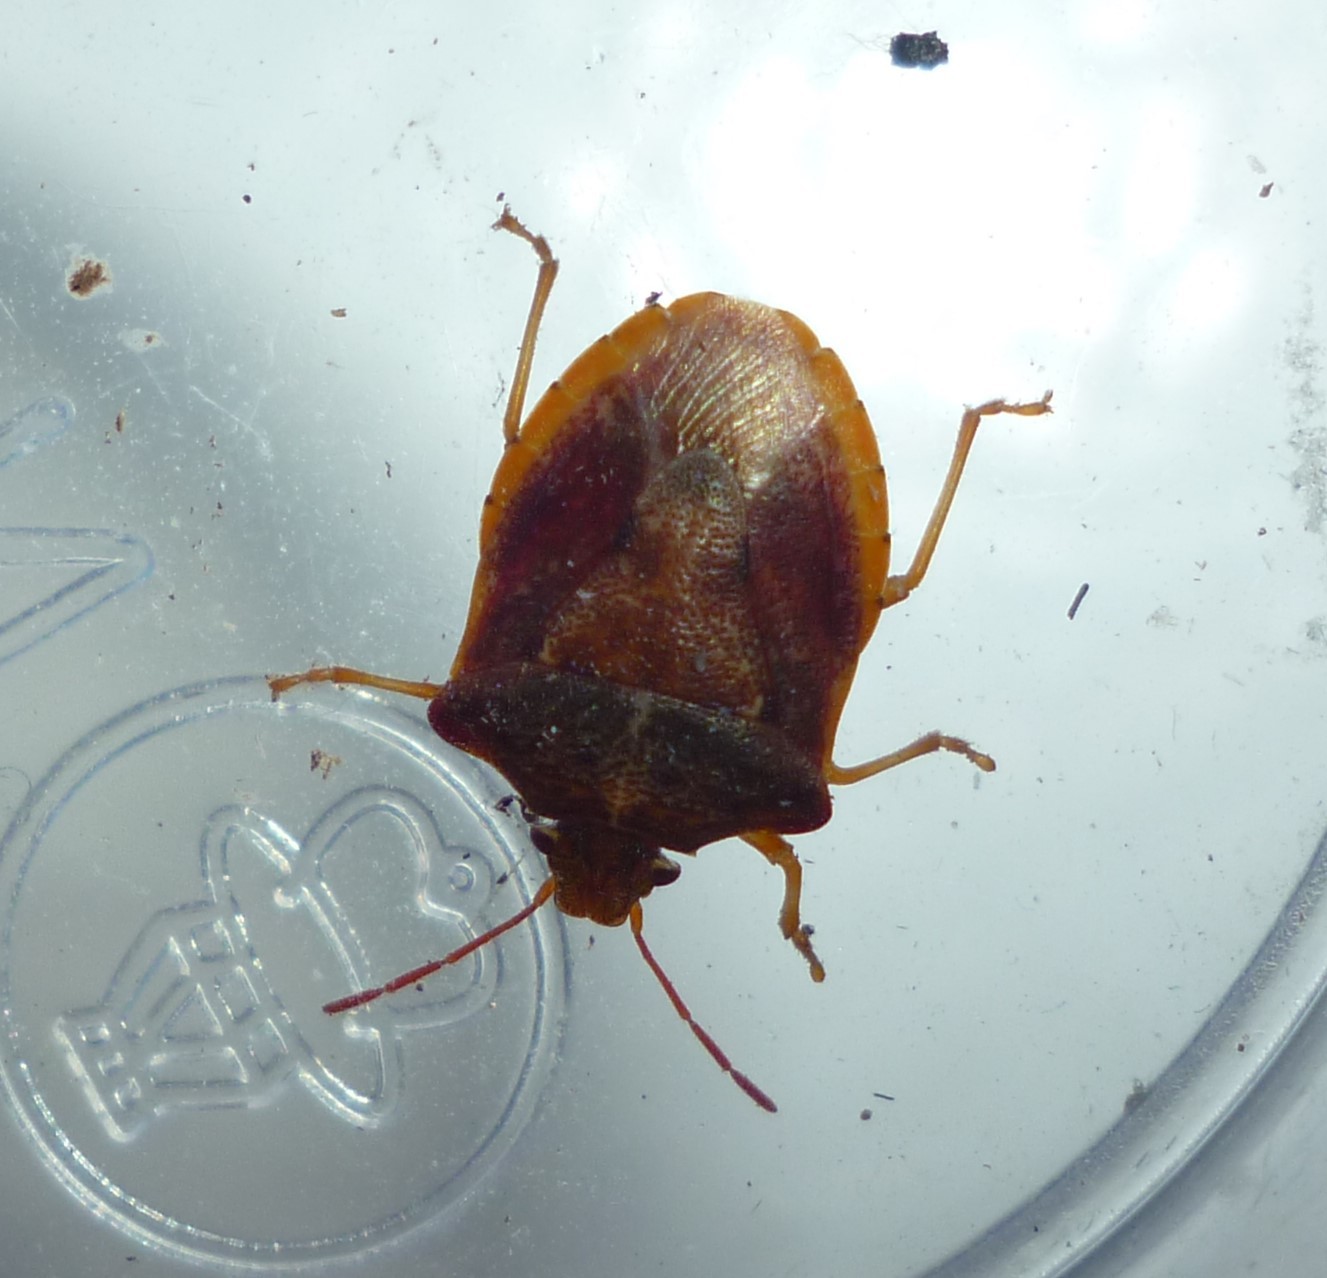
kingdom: Animalia
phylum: Arthropoda
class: Insecta
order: Hemiptera
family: Pentatomidae
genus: Dendrocoris
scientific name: Dendrocoris humeralis
